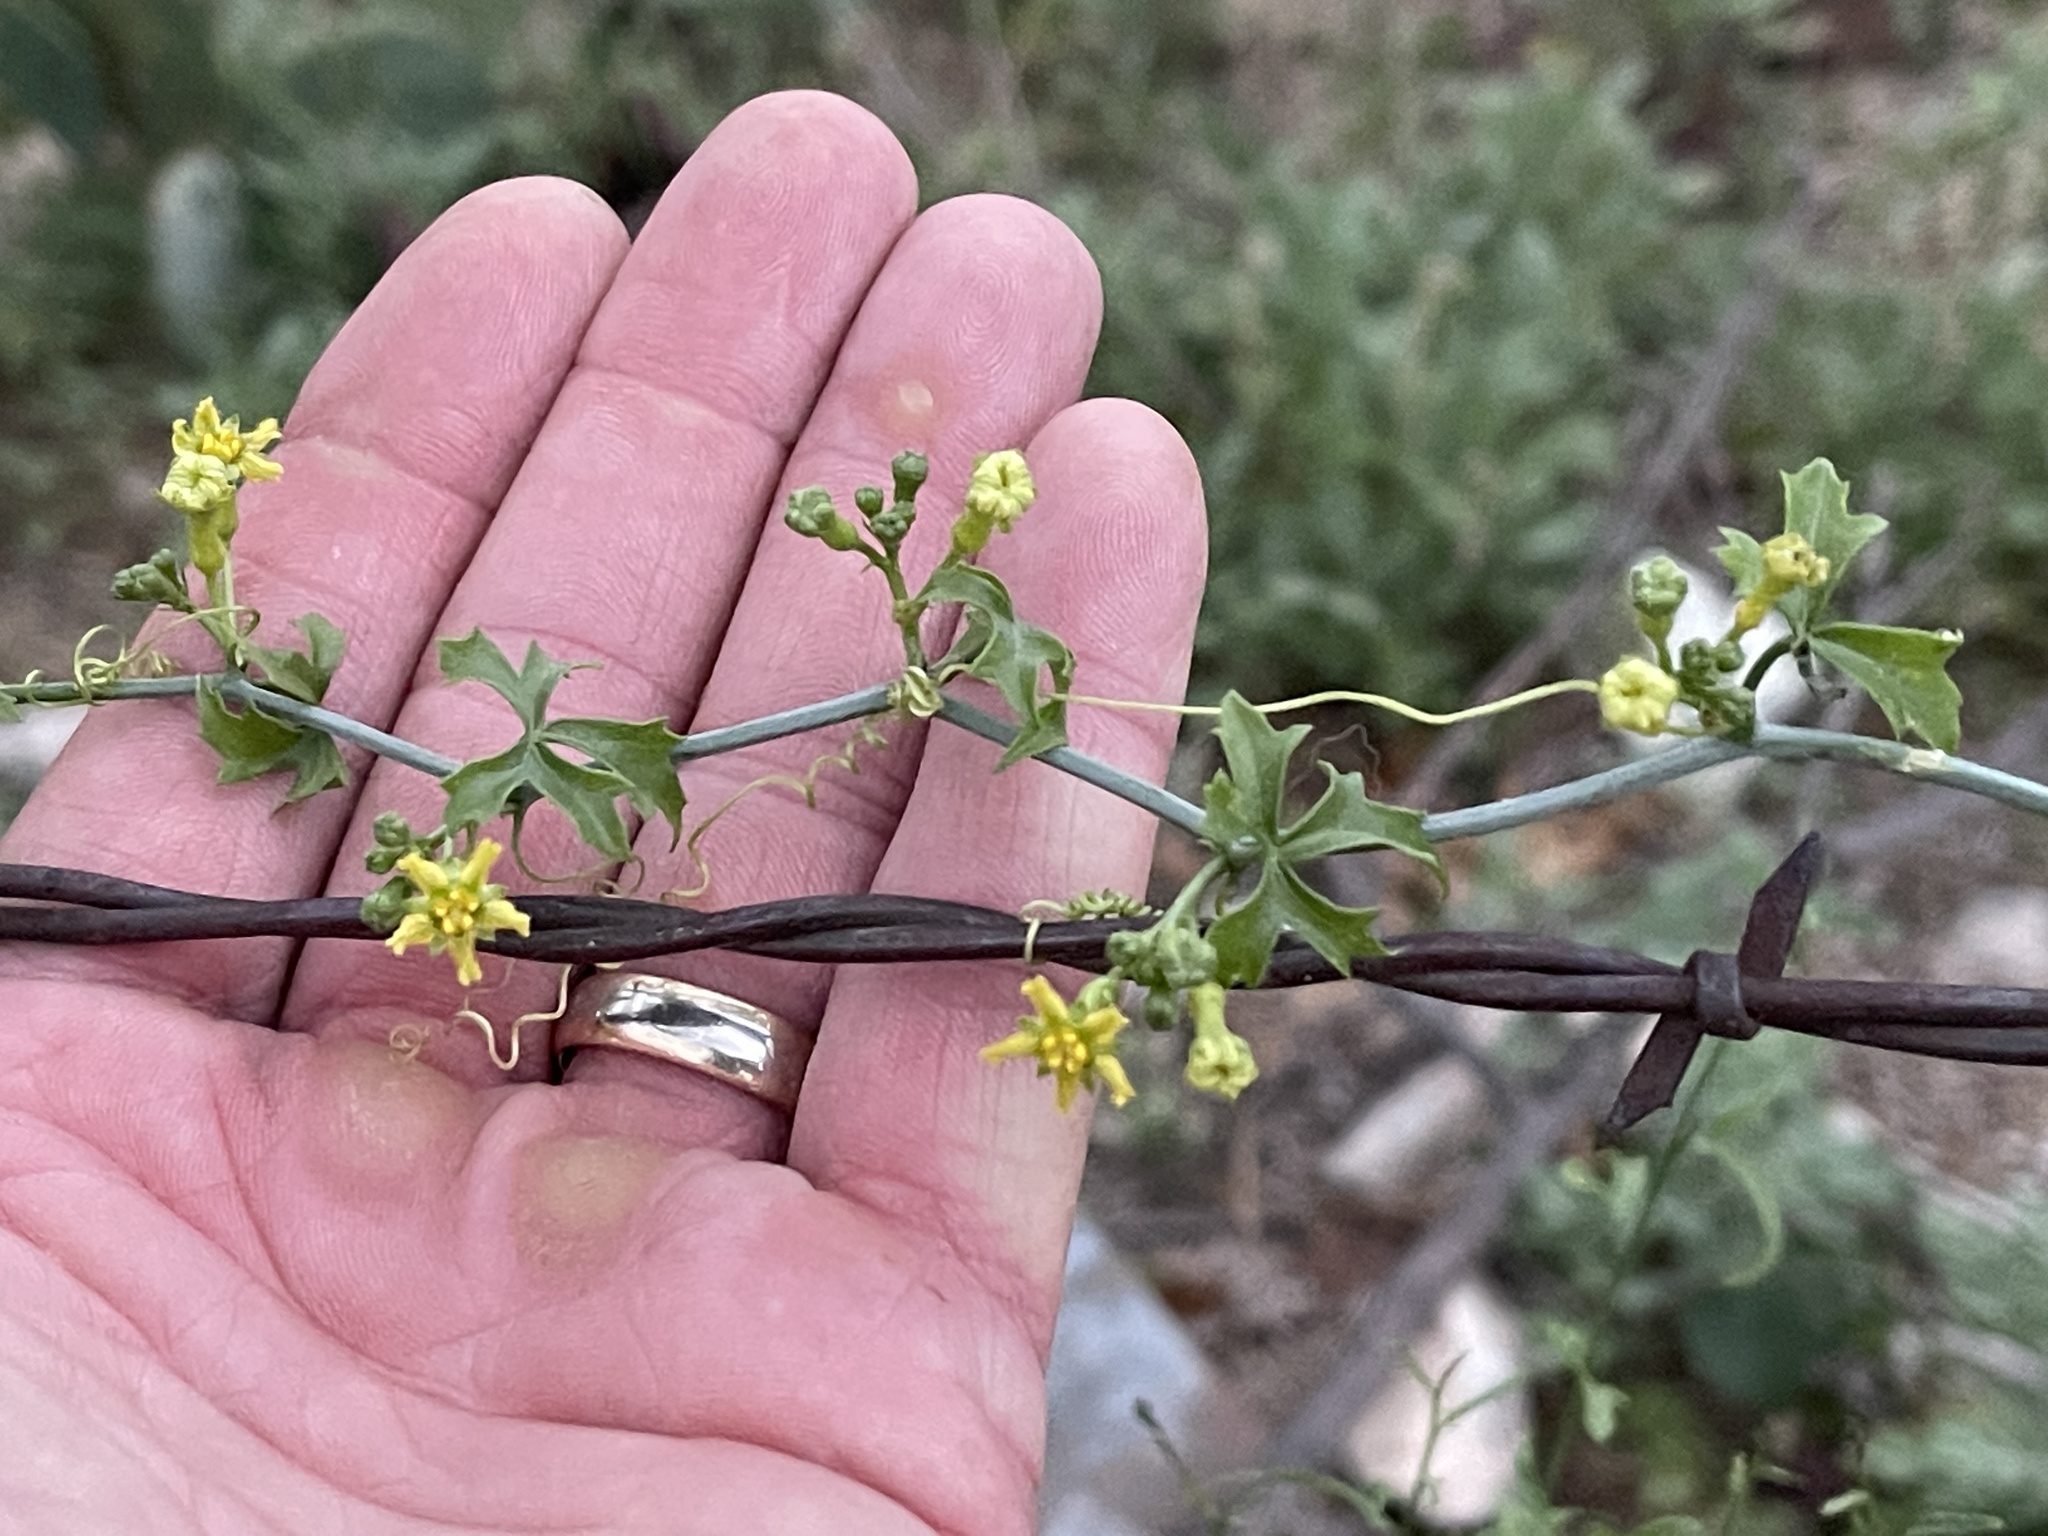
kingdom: Plantae
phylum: Tracheophyta
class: Magnoliopsida
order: Cucurbitales
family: Cucurbitaceae
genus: Ibervillea
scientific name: Ibervillea lindheimeri
